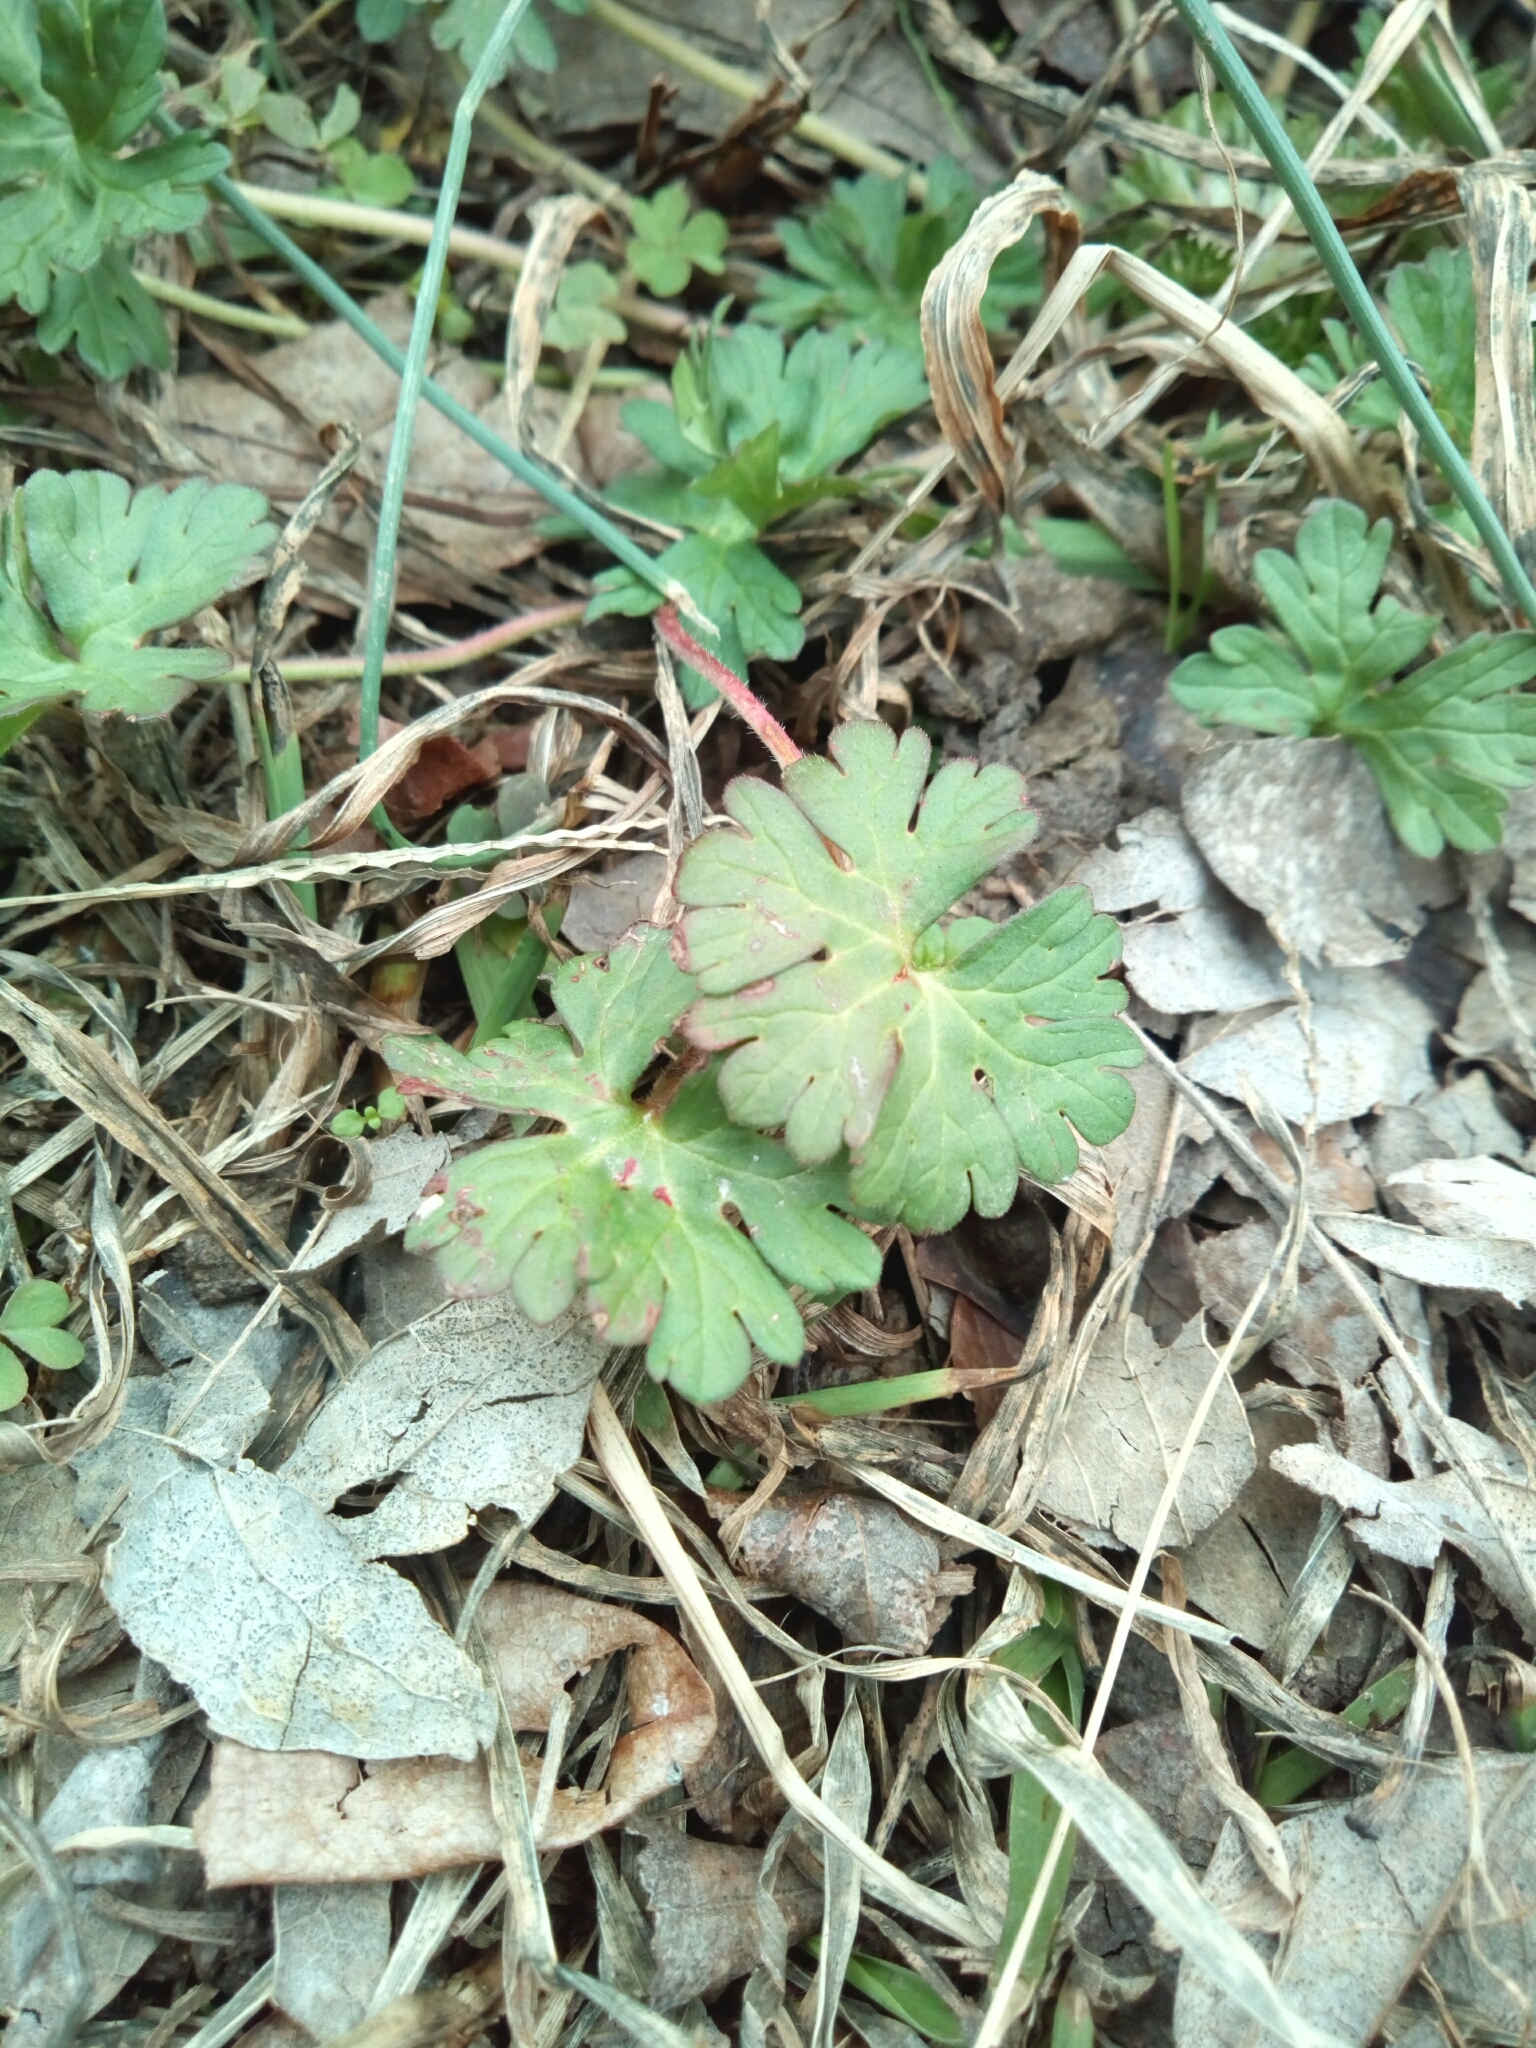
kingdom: Plantae
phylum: Tracheophyta
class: Magnoliopsida
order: Geraniales
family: Geraniaceae
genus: Geranium
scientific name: Geranium carolinianum
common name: Carolina crane's-bill
